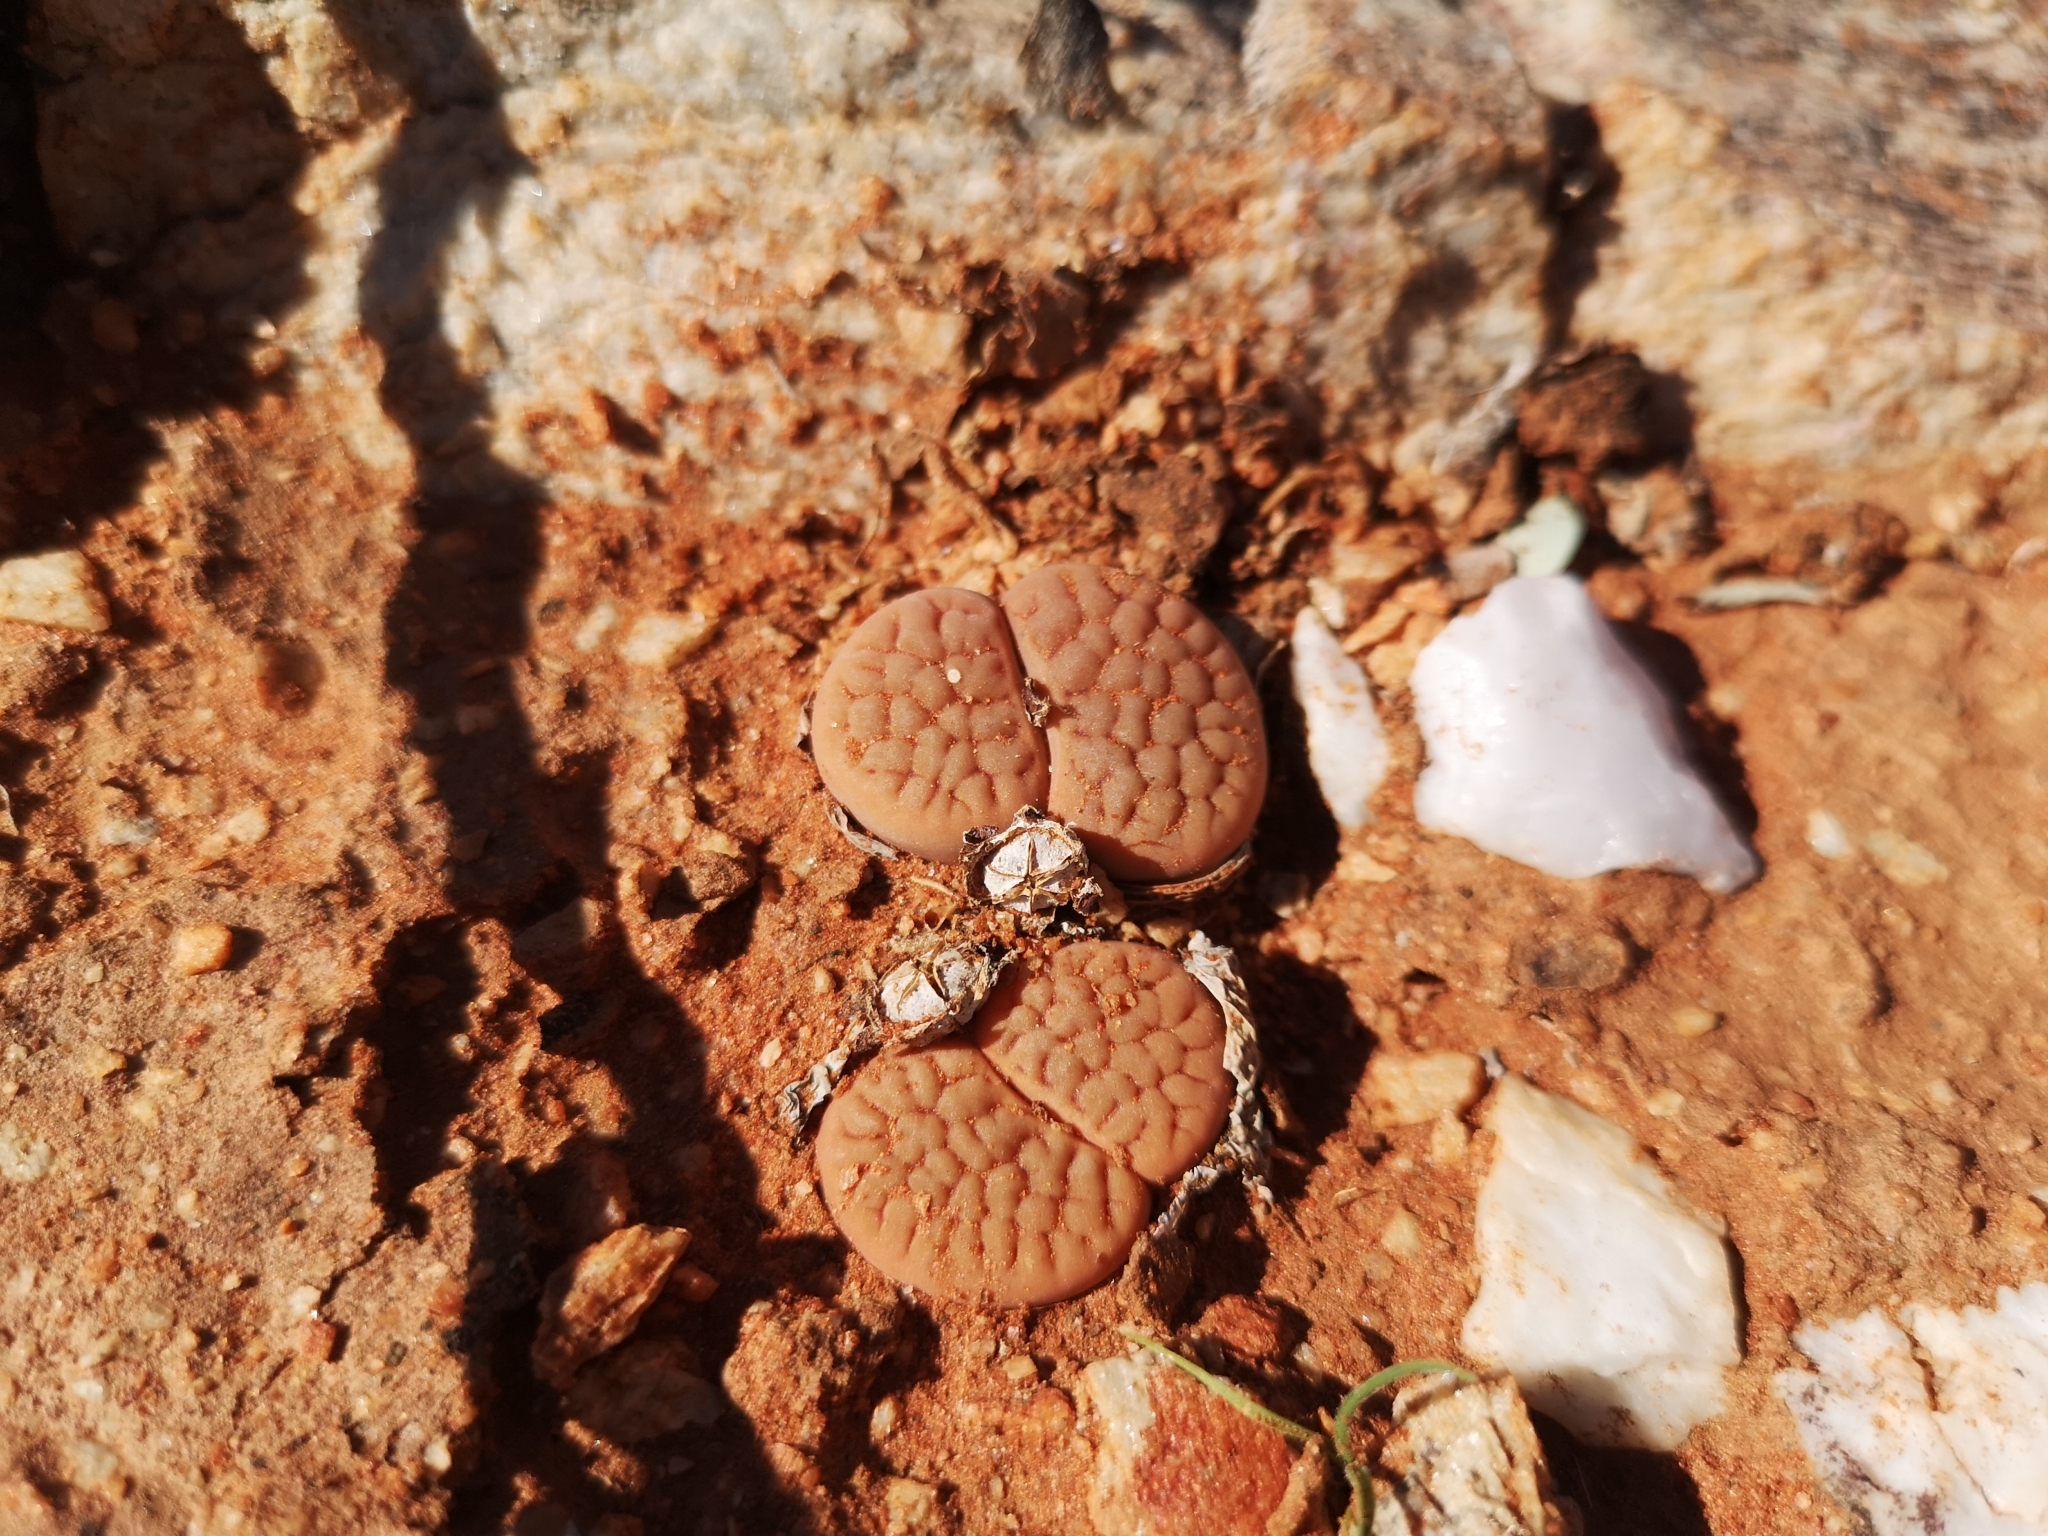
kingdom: Plantae
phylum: Tracheophyta
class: Magnoliopsida
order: Caryophyllales
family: Aizoaceae
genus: Lithops
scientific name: Lithops hookeri
